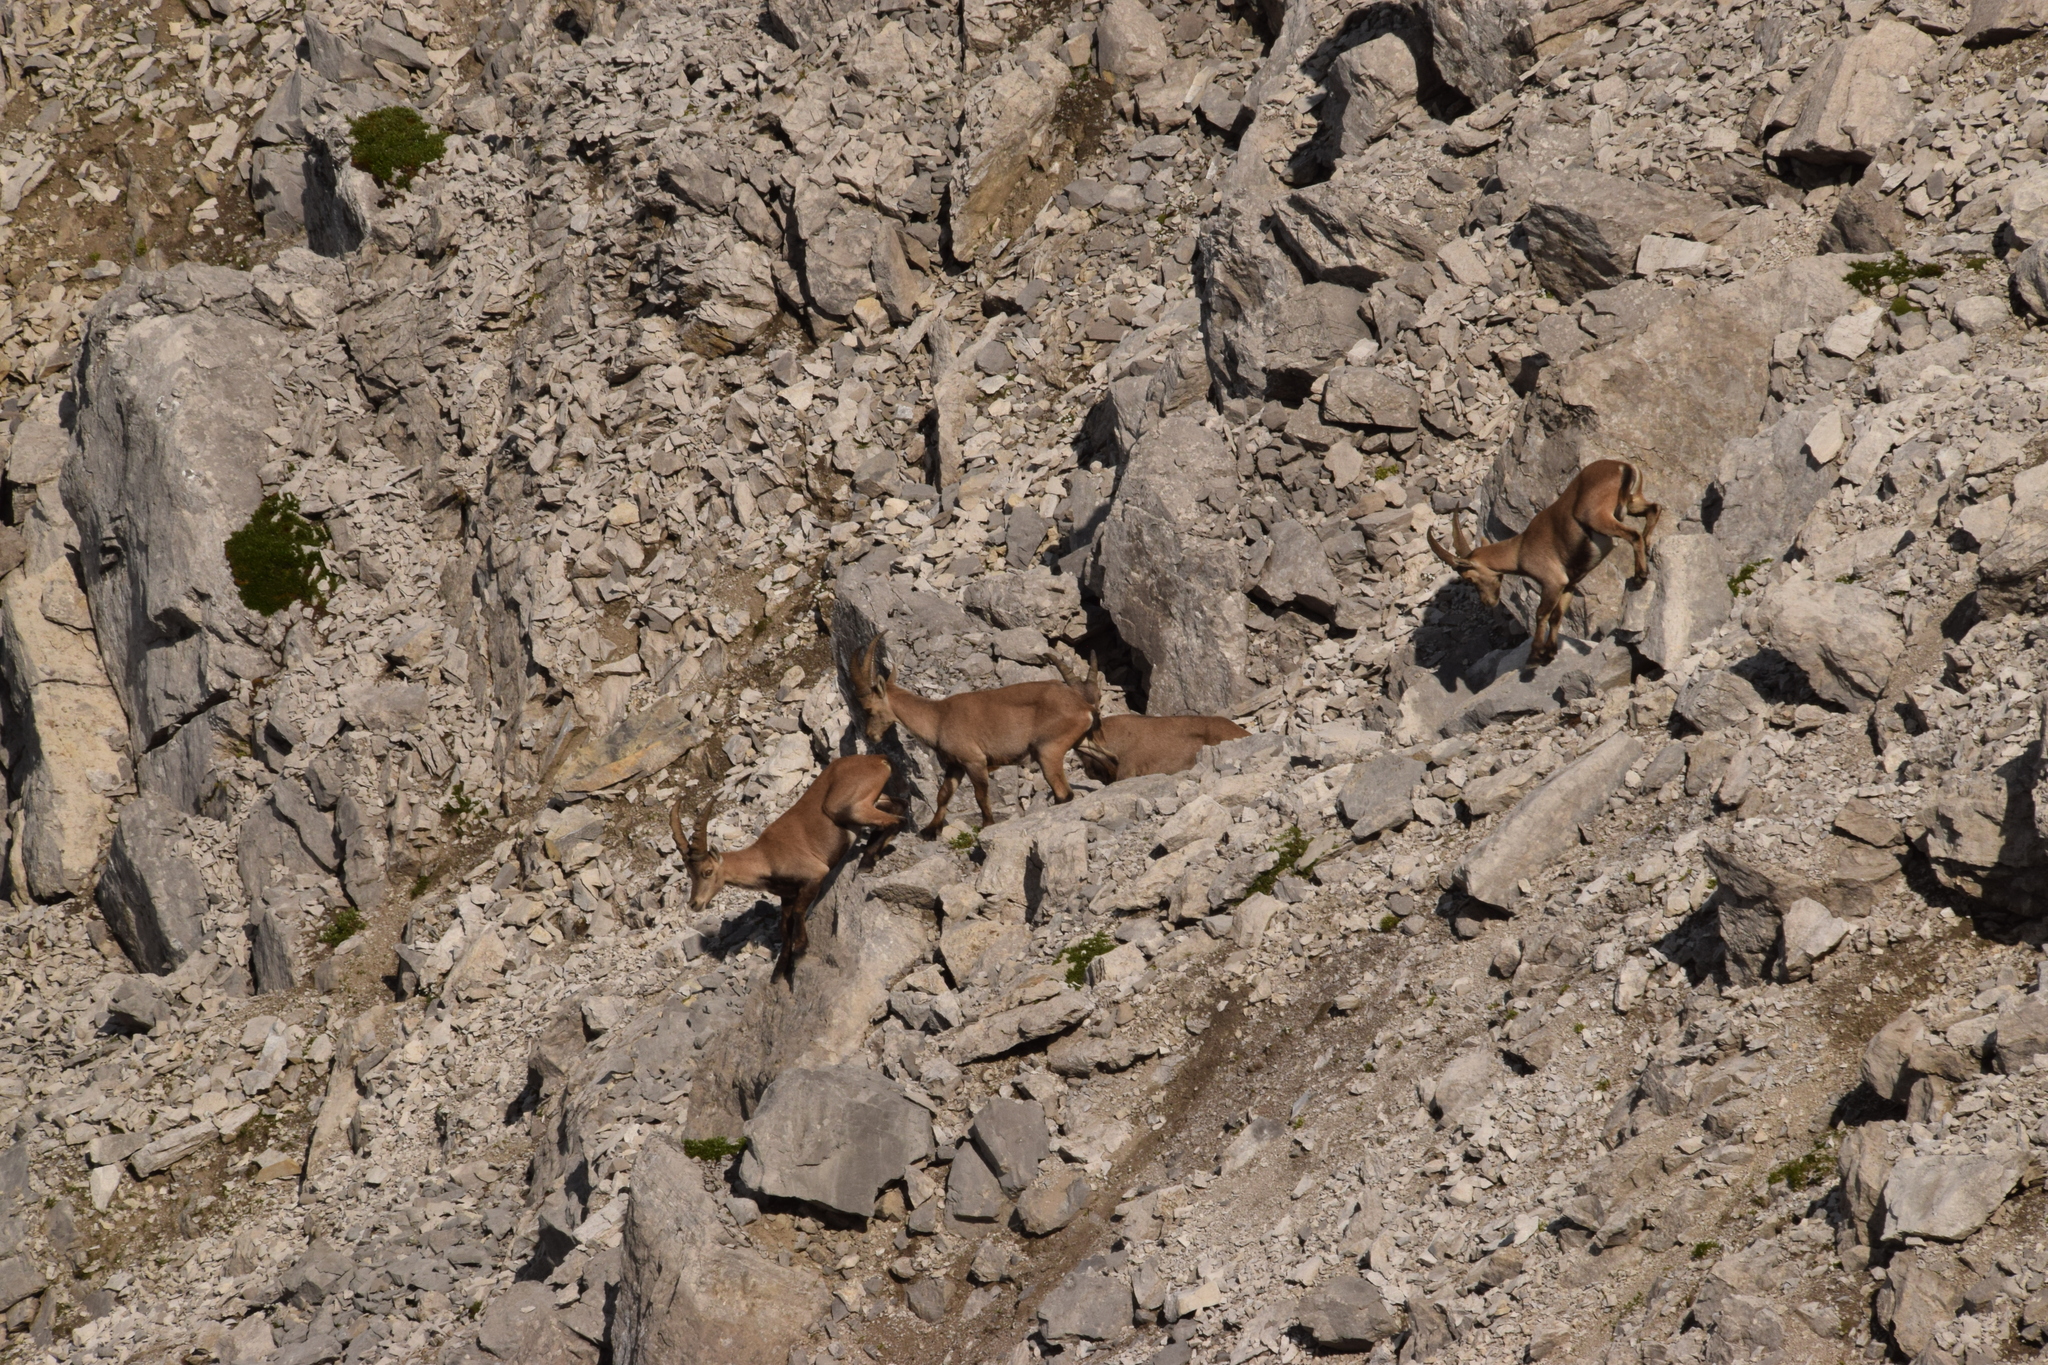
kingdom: Animalia
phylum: Chordata
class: Mammalia
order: Artiodactyla
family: Bovidae
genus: Capra
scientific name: Capra ibex
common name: Alpine ibex
